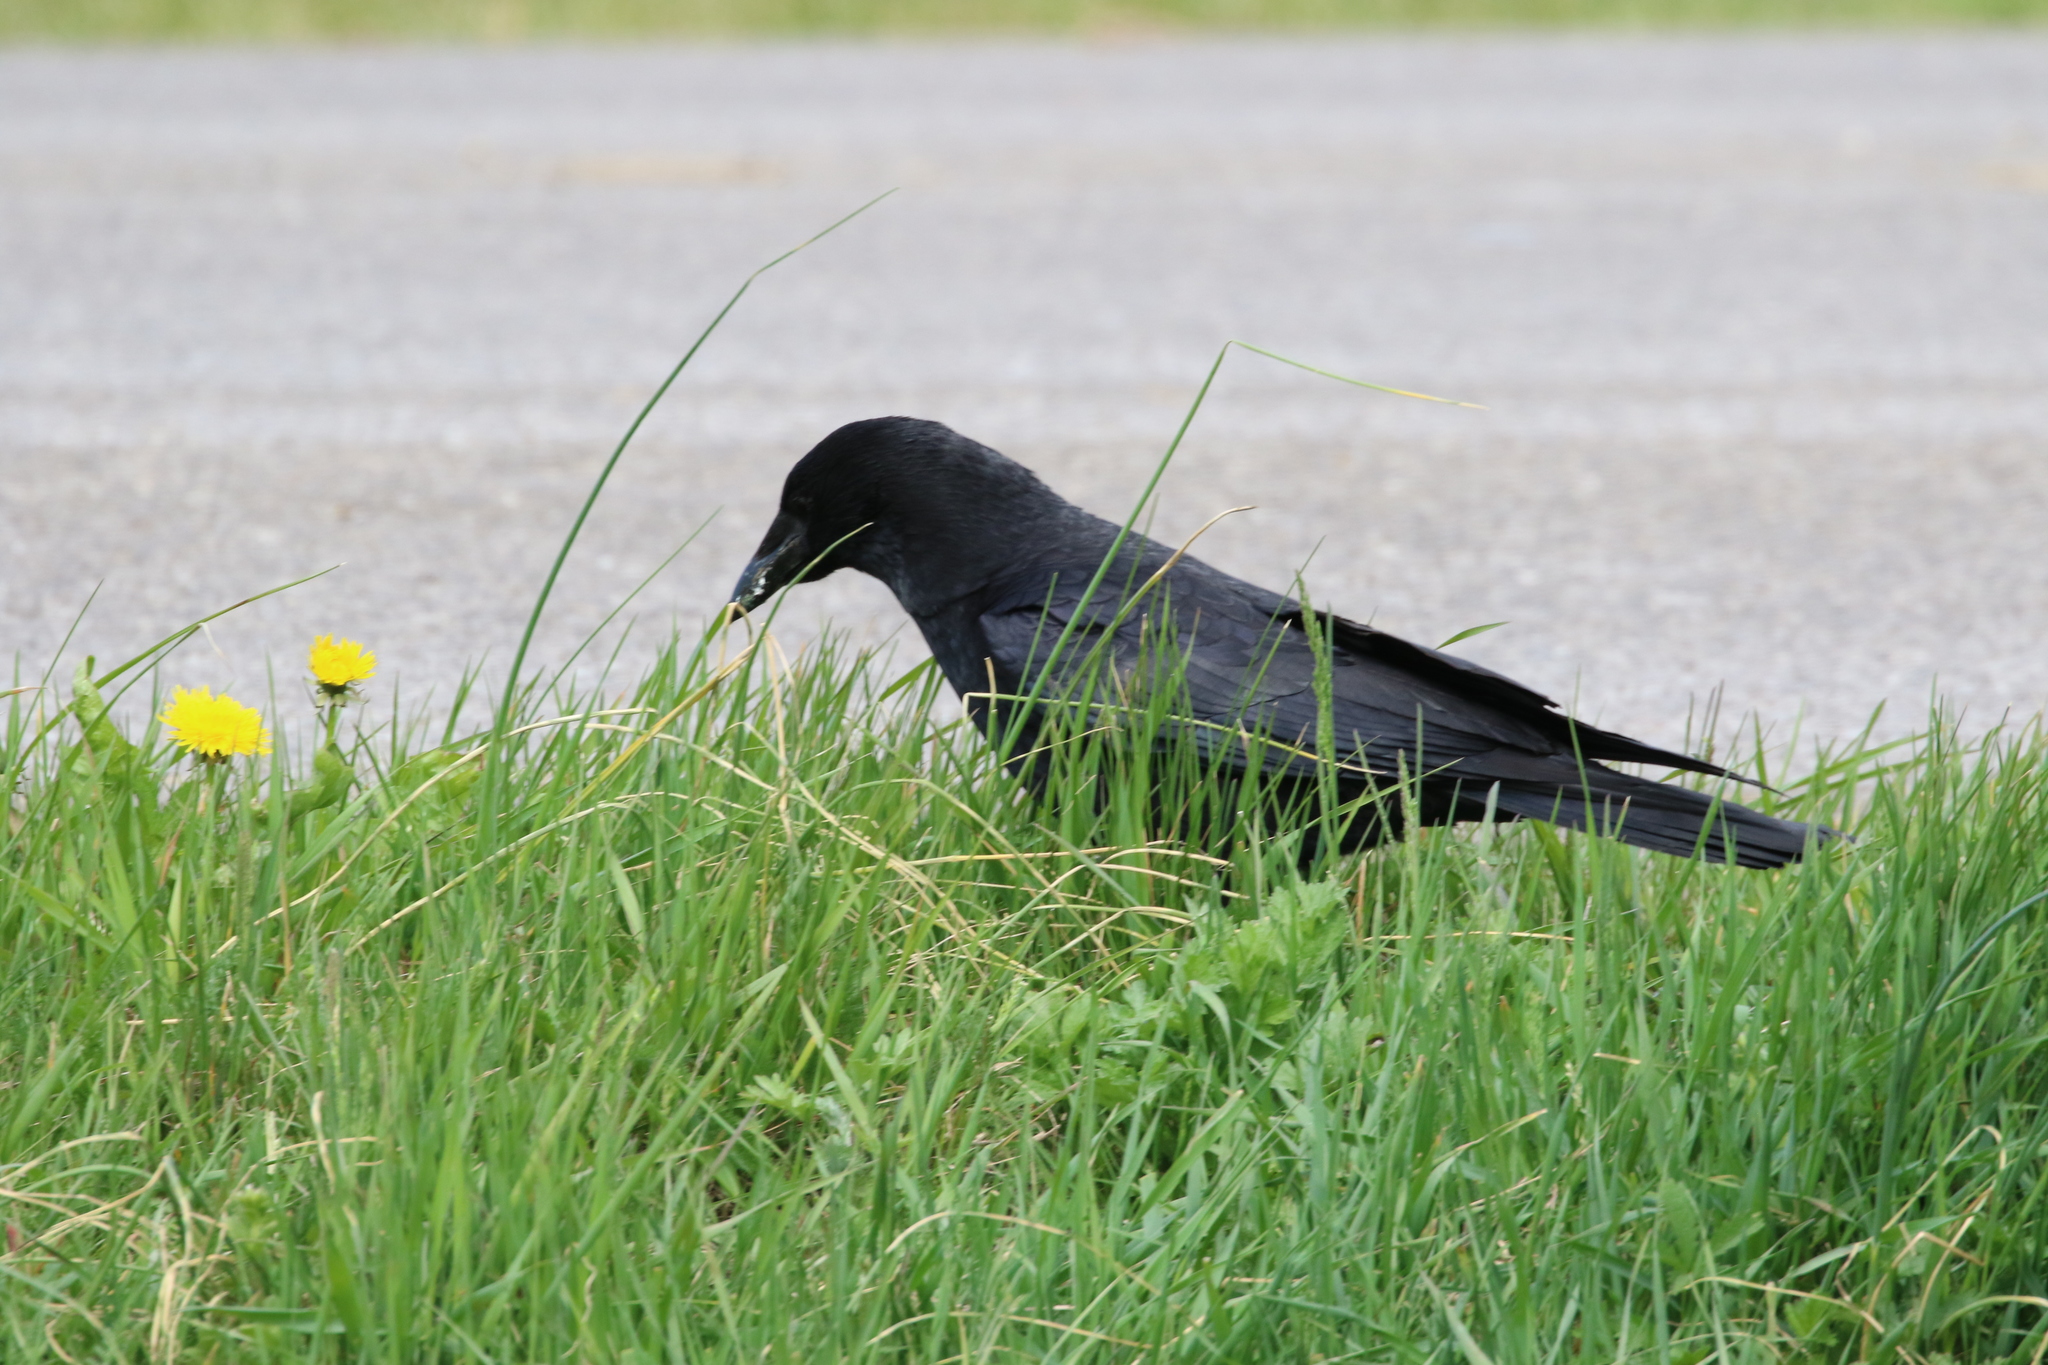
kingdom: Animalia
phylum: Chordata
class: Aves
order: Passeriformes
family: Corvidae
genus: Corvus
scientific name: Corvus corone
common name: Carrion crow
